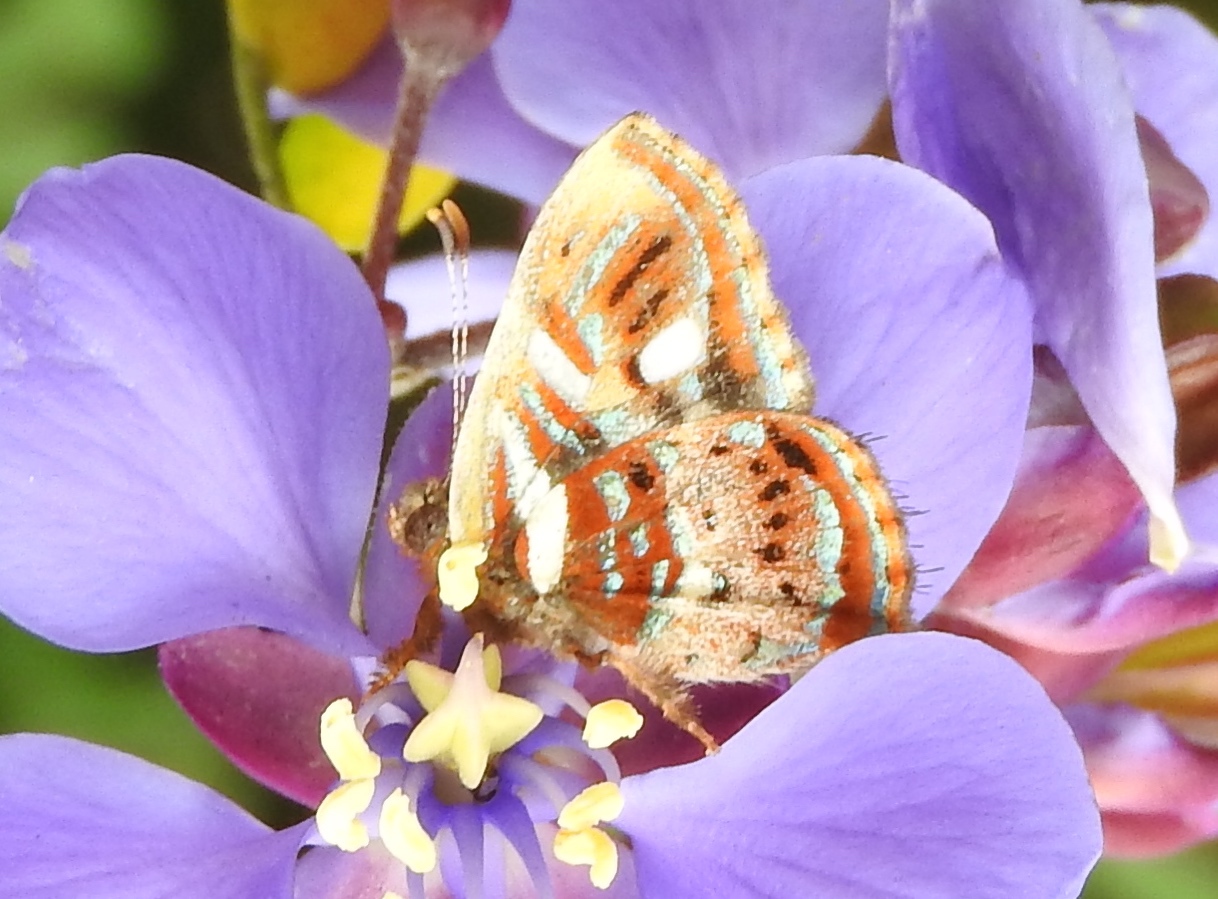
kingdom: Animalia
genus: Anteros
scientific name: Anteros carausius
